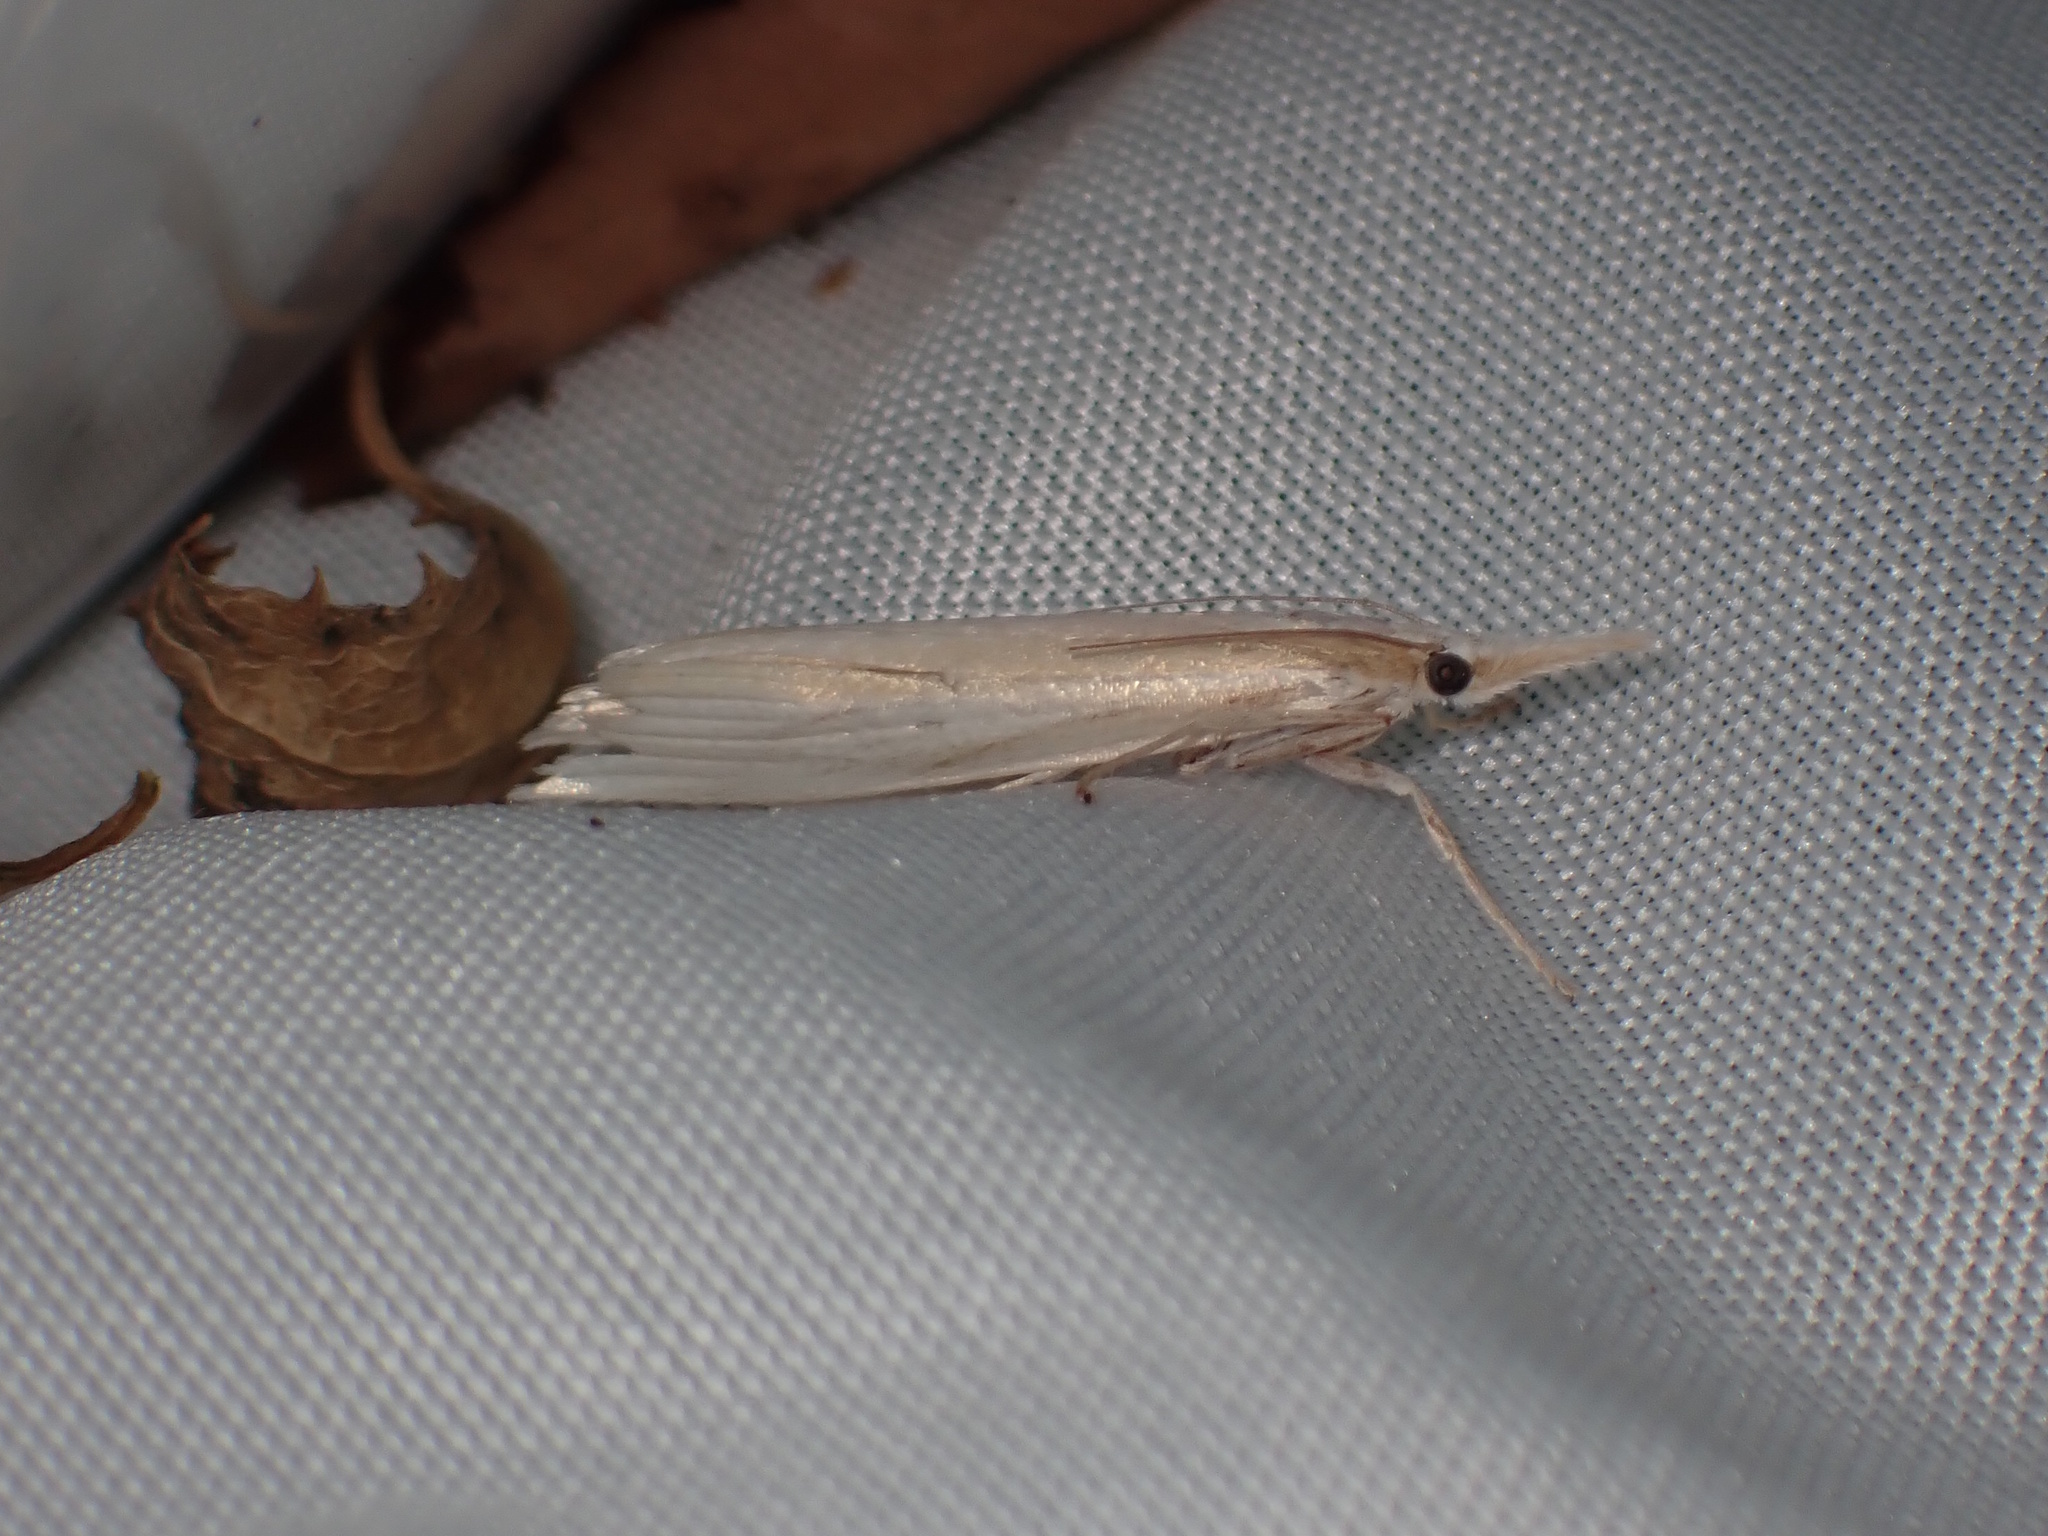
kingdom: Animalia
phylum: Arthropoda
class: Insecta
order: Lepidoptera
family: Crambidae
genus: Orocrambus
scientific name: Orocrambus angustipennis
